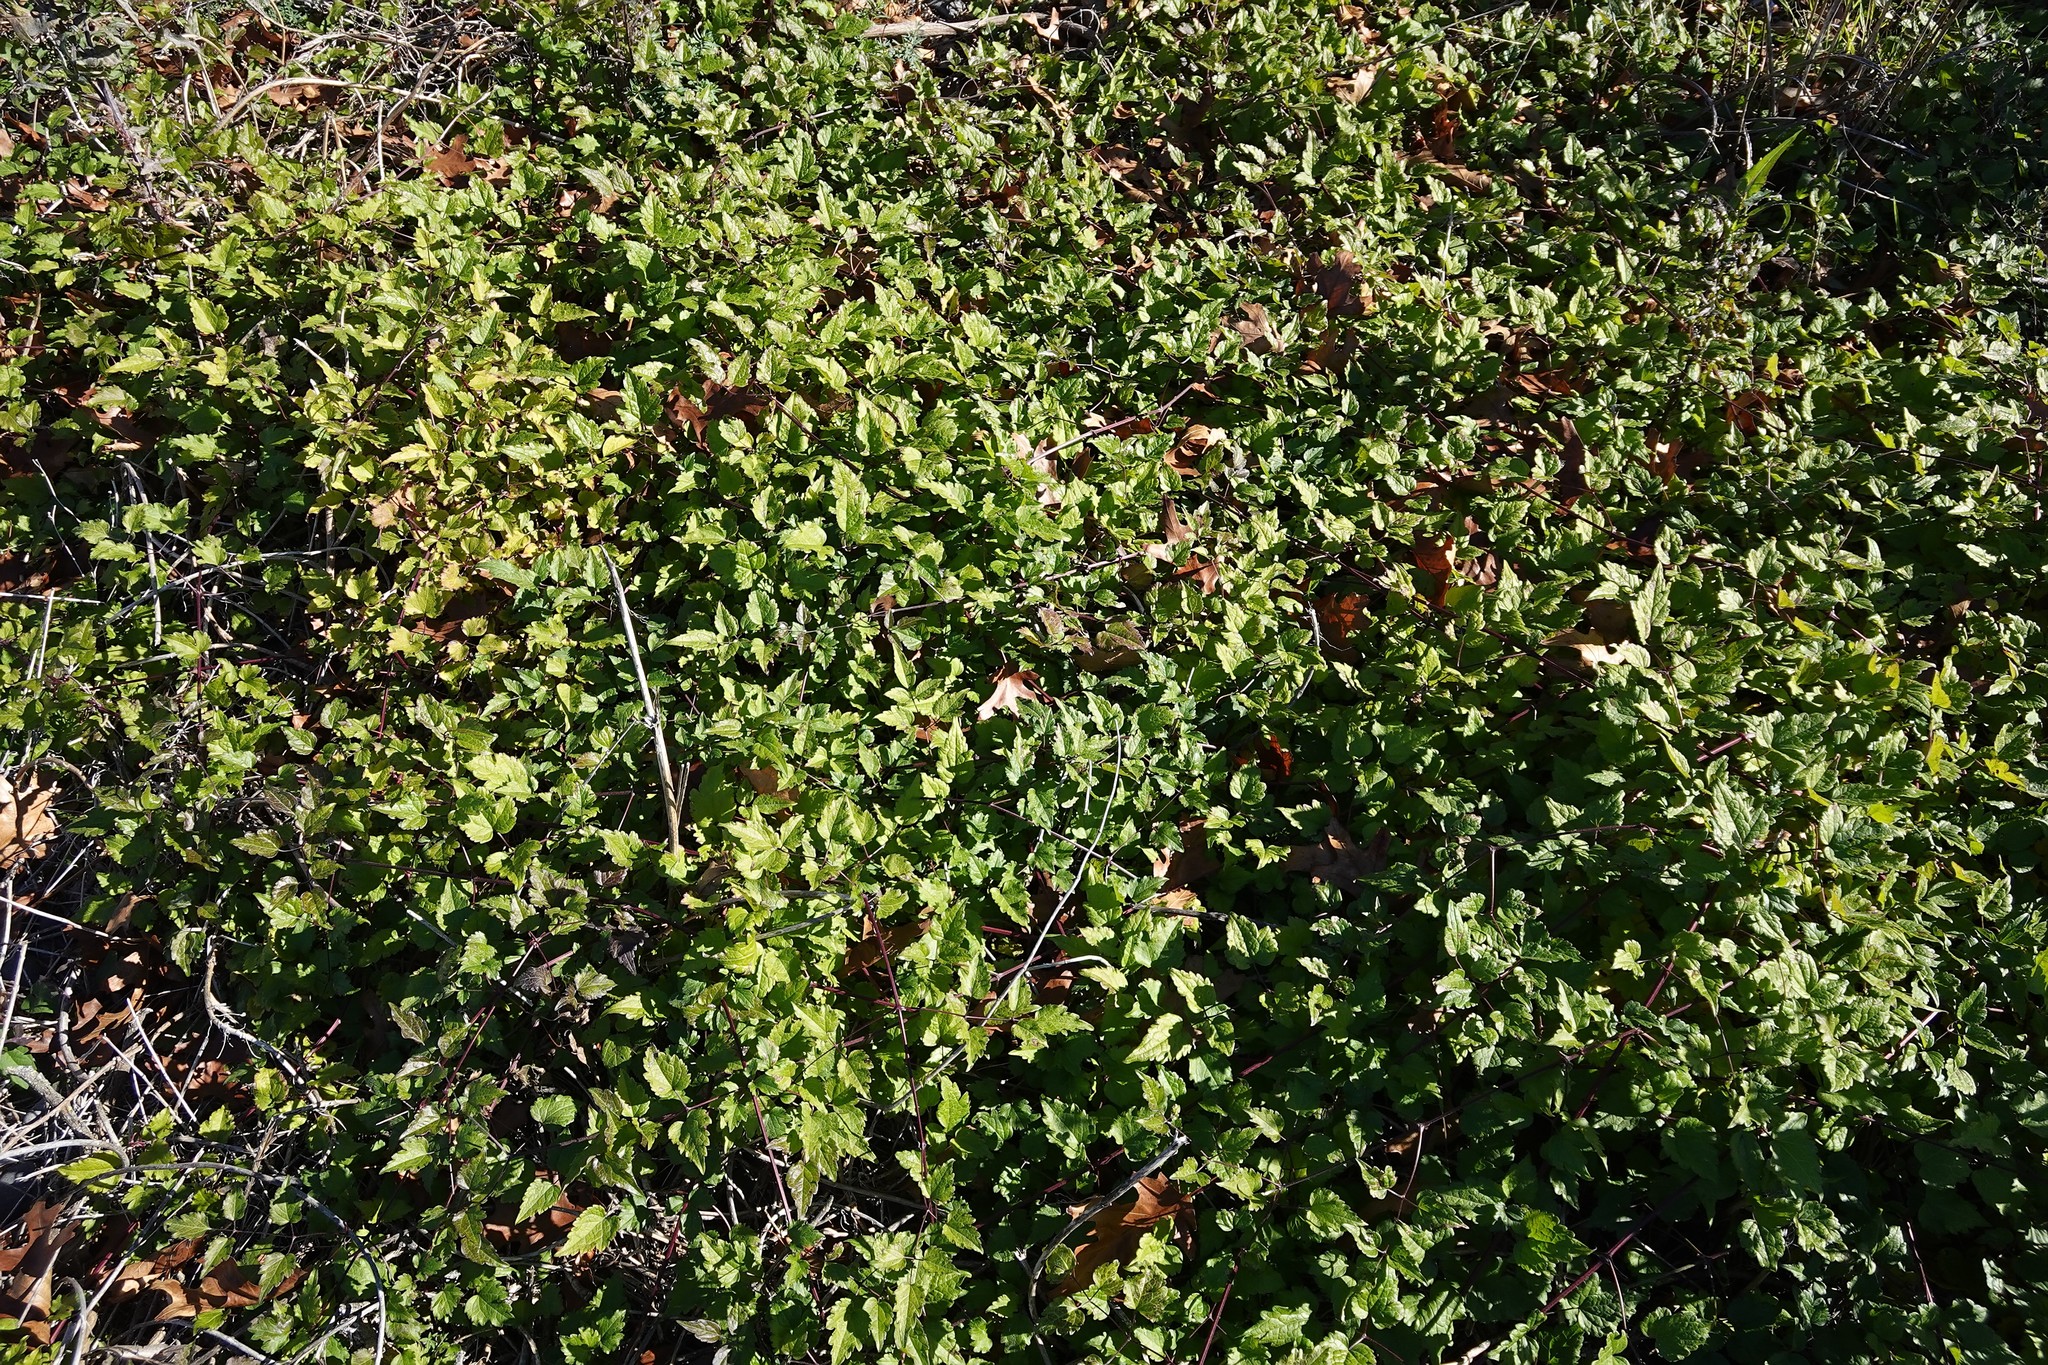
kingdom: Plantae
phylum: Tracheophyta
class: Magnoliopsida
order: Ranunculales
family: Ranunculaceae
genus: Clematis
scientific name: Clematis vitalba
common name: Evergreen clematis
